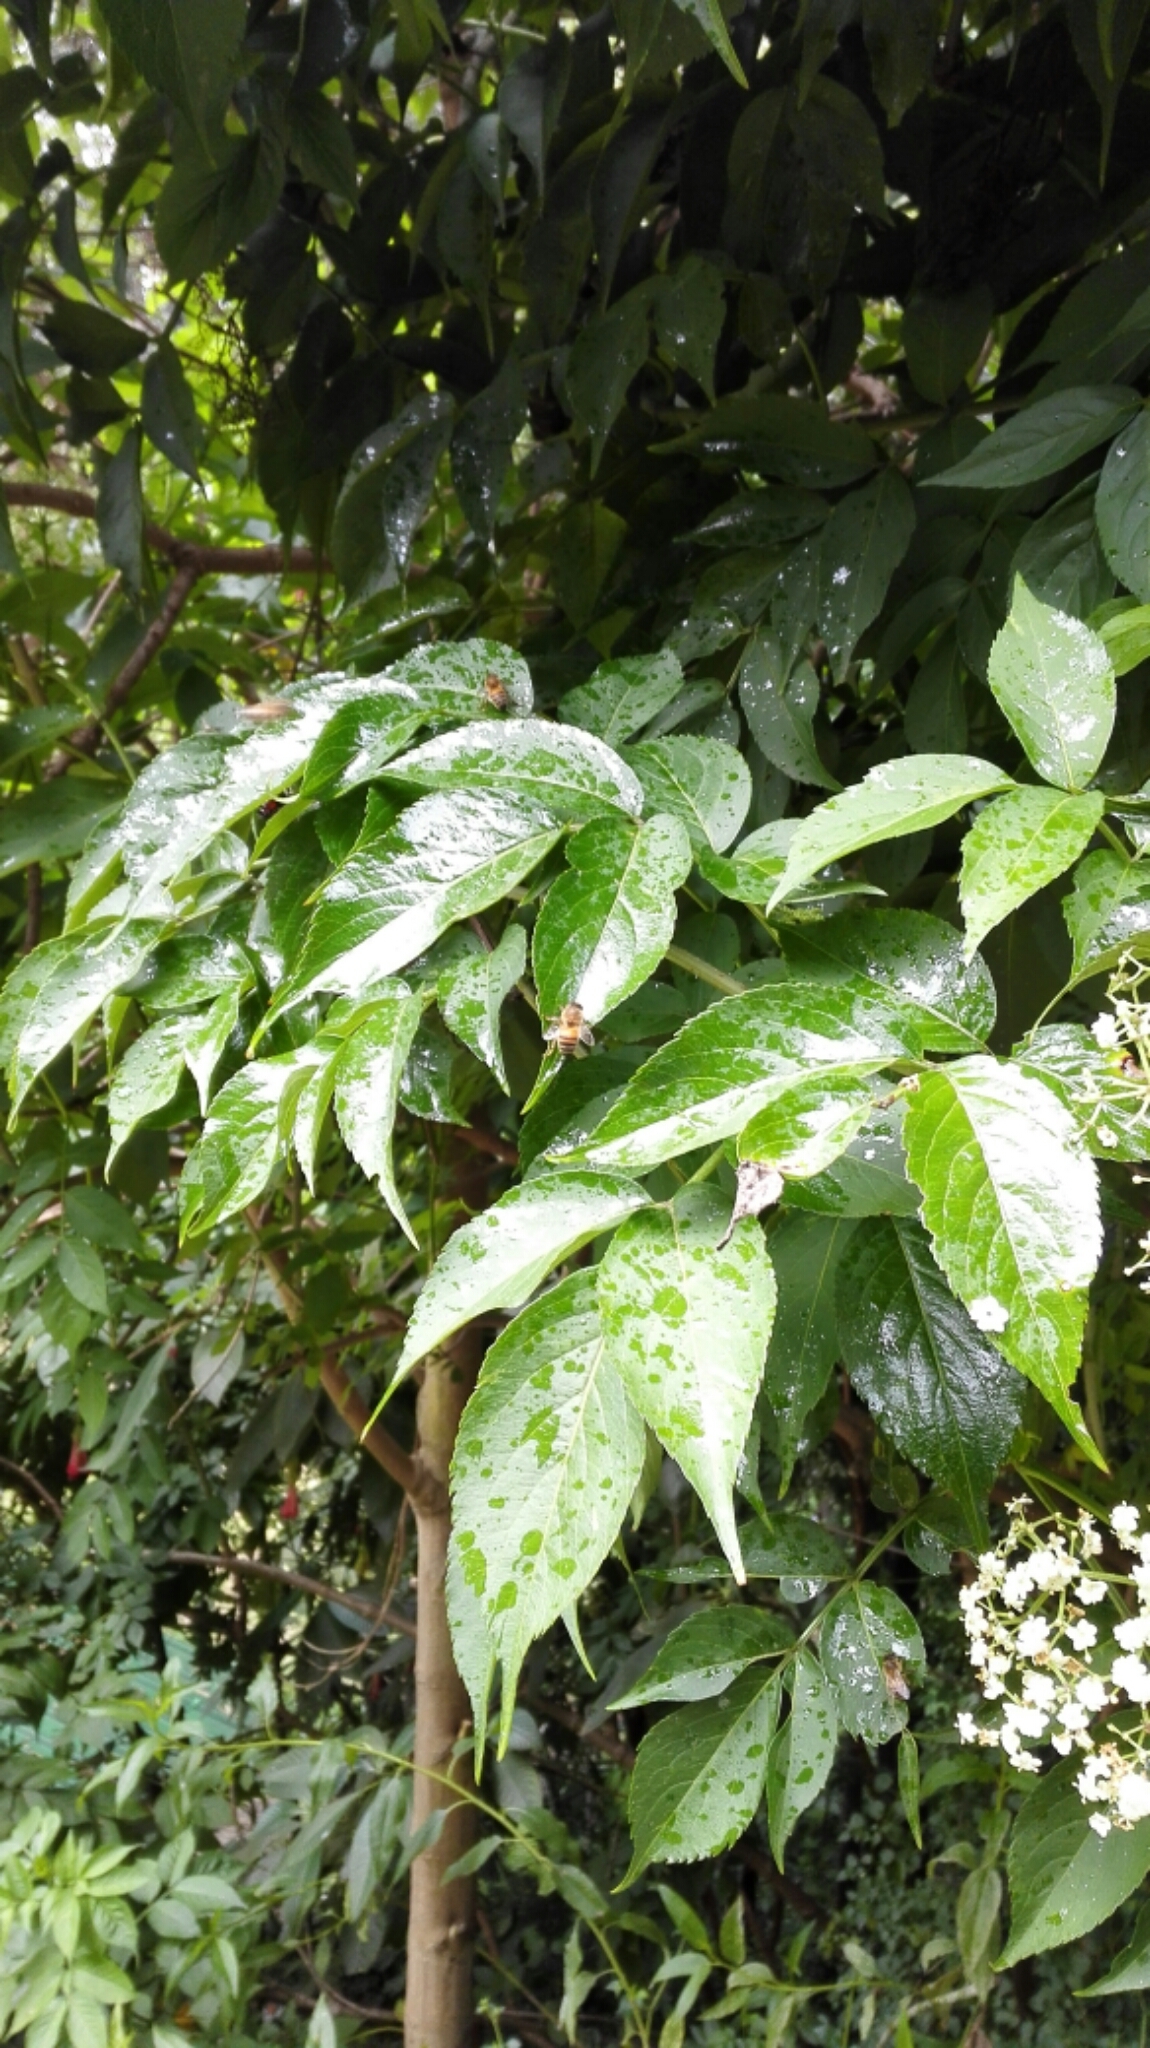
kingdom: Animalia
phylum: Arthropoda
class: Insecta
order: Hymenoptera
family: Apidae
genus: Apis
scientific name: Apis mellifera
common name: Honey bee
